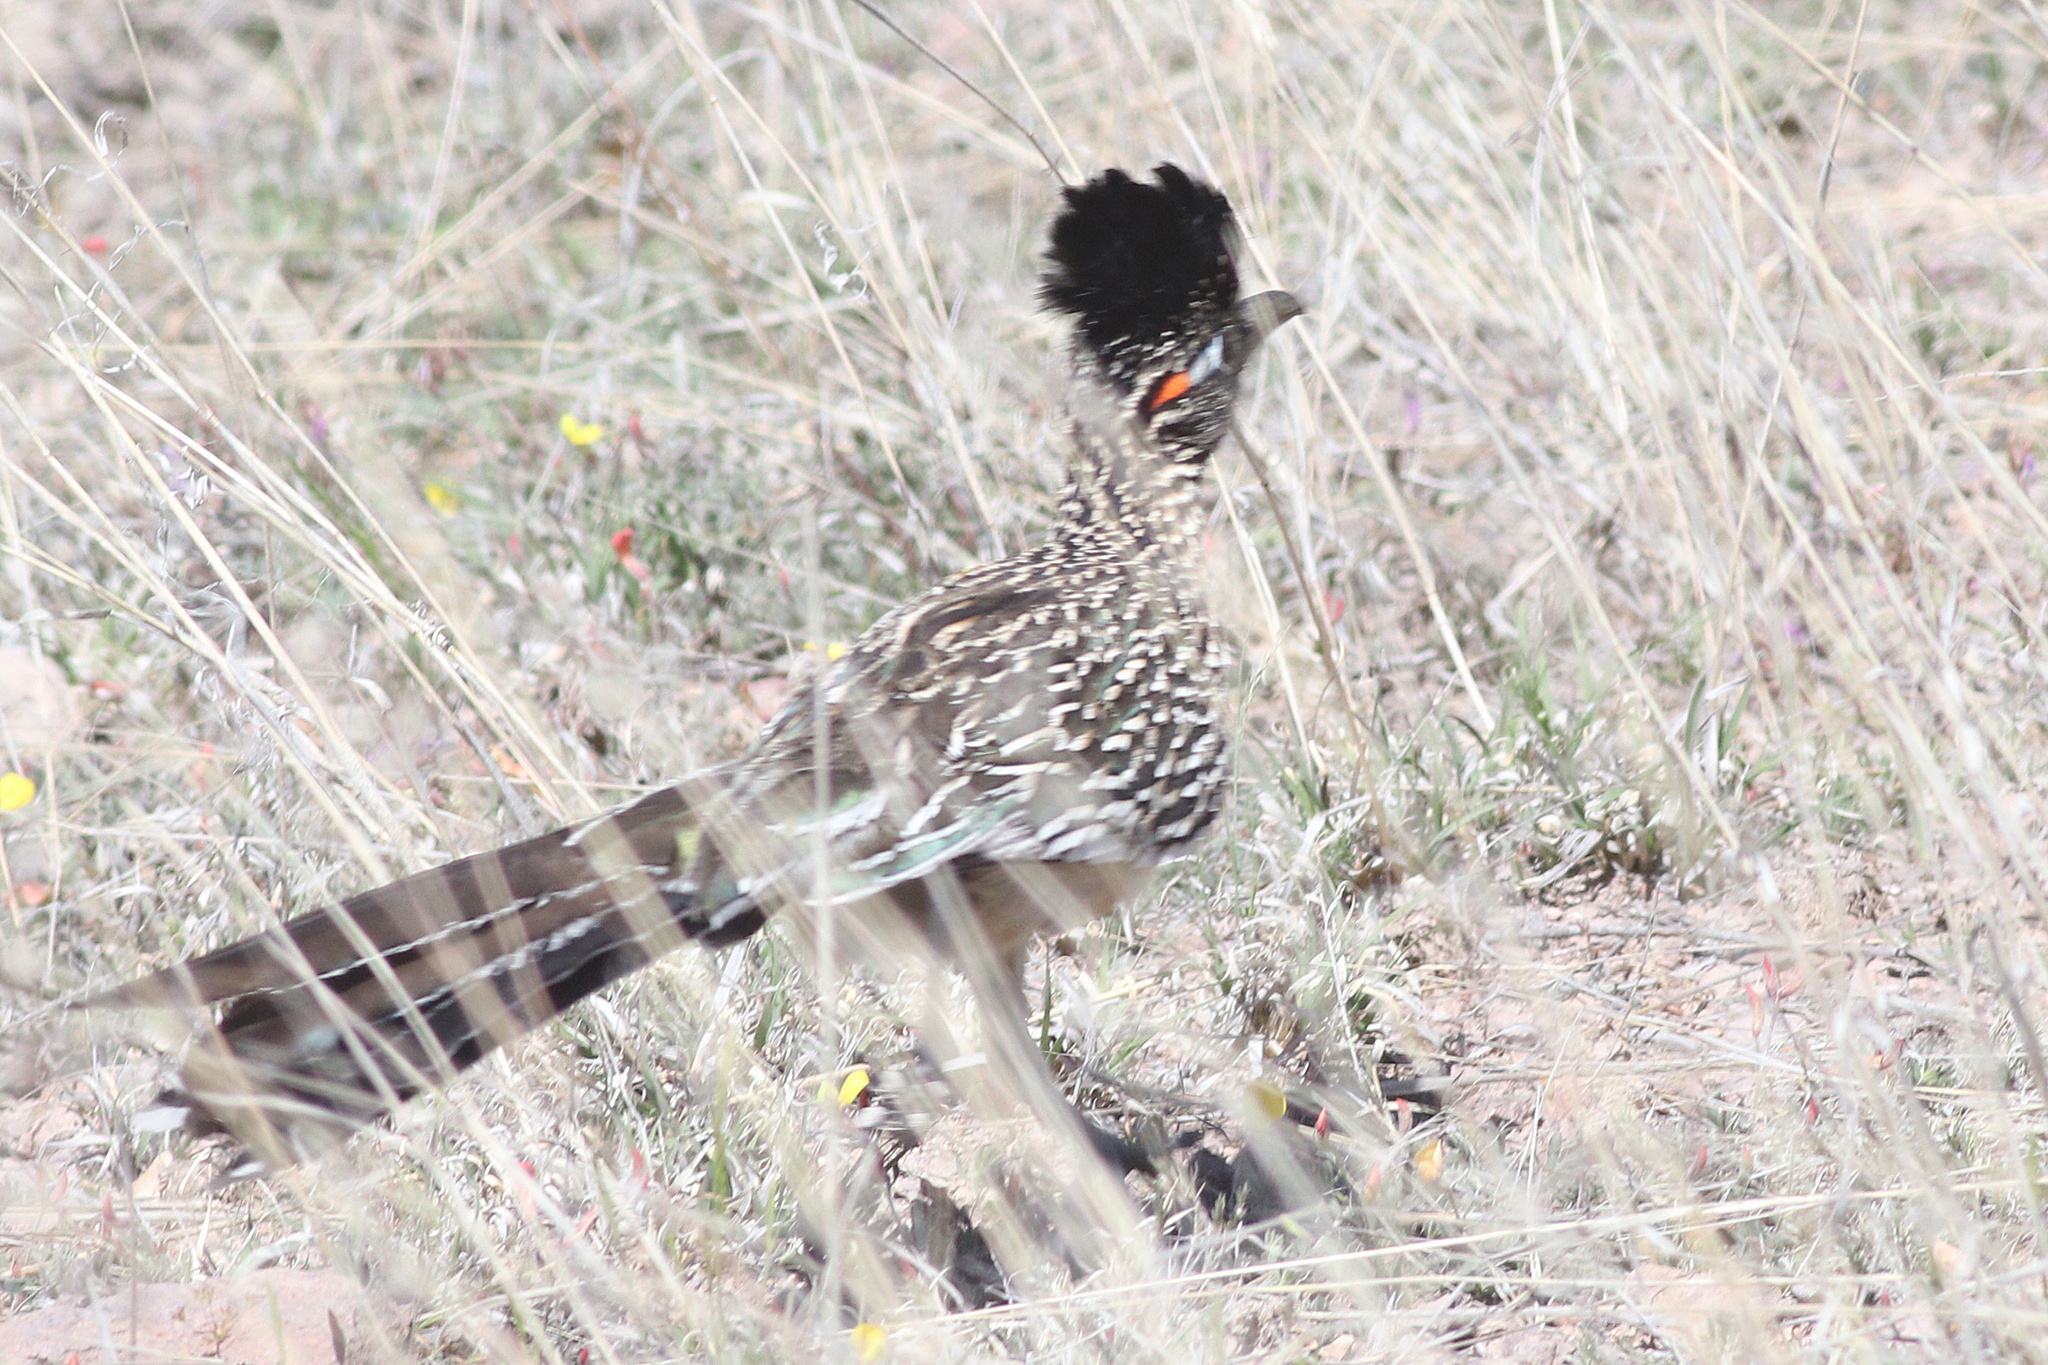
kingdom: Animalia
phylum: Chordata
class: Aves
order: Cuculiformes
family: Cuculidae
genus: Geococcyx
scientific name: Geococcyx californianus
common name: Greater roadrunner
